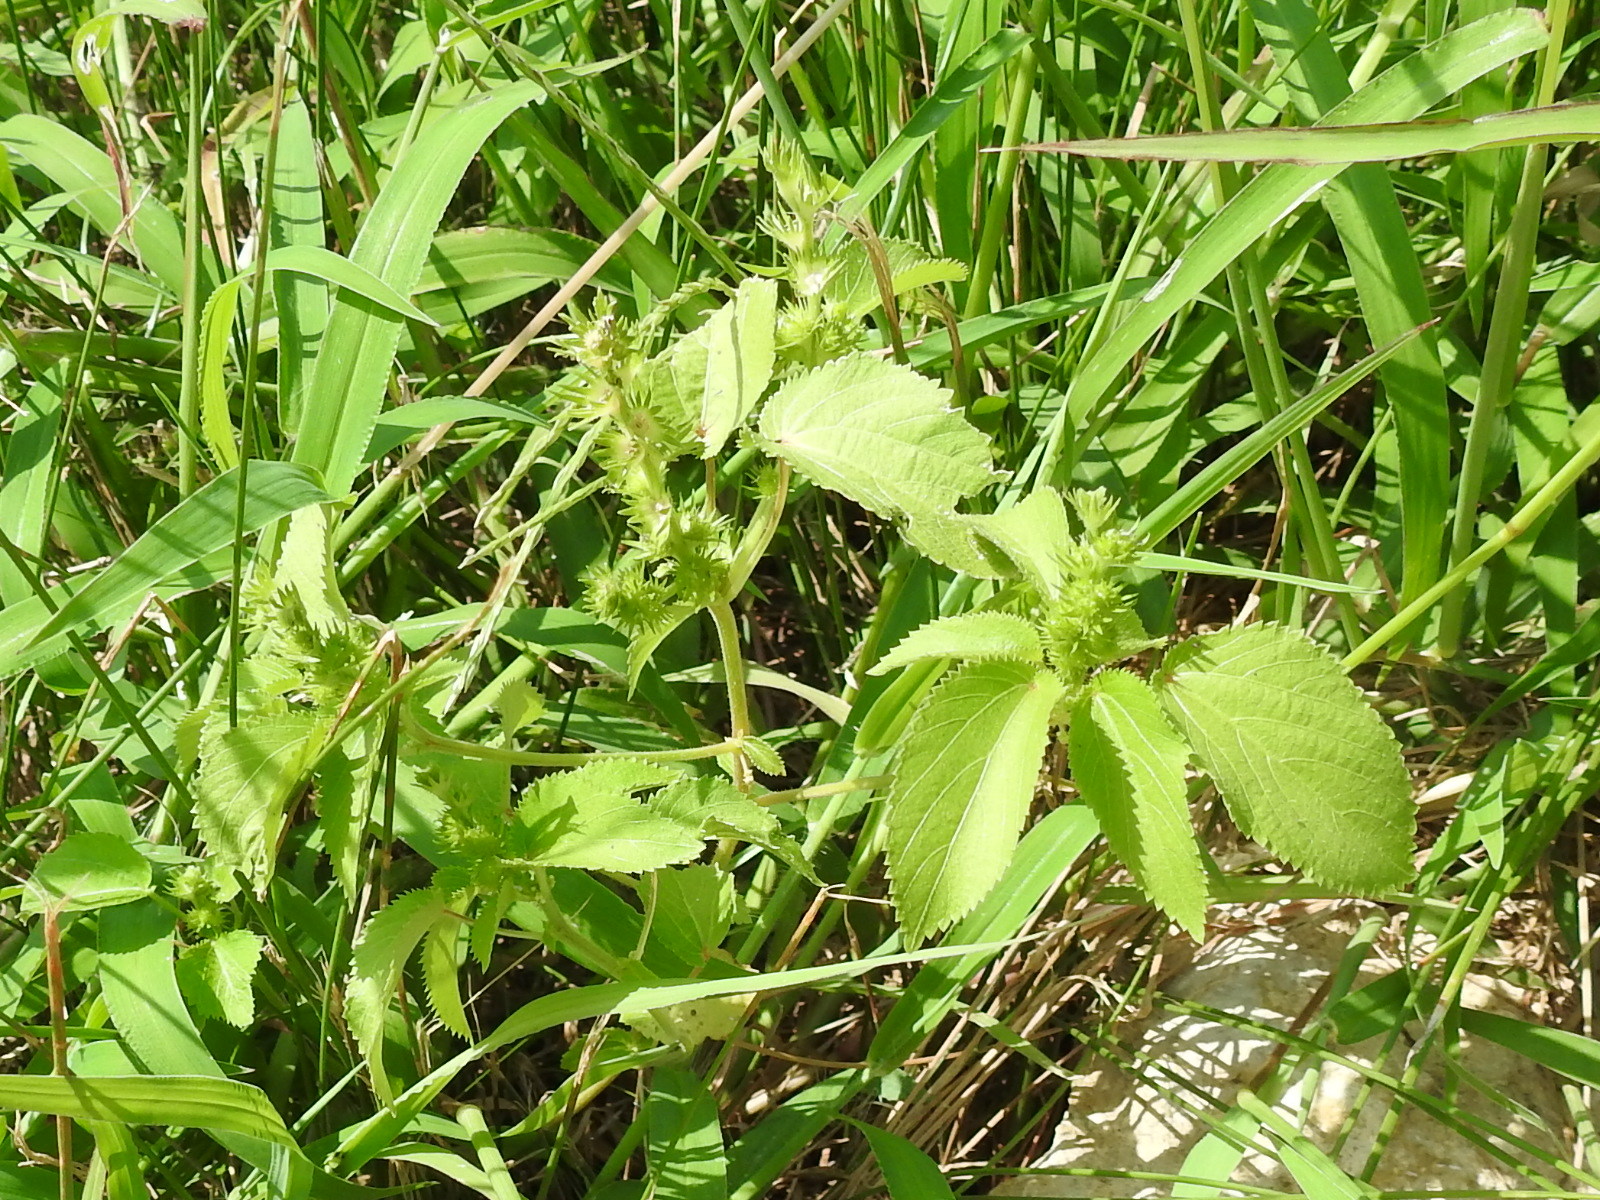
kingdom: Plantae
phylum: Tracheophyta
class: Magnoliopsida
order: Malpighiales
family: Euphorbiaceae
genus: Acalypha
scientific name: Acalypha ostryifolia
